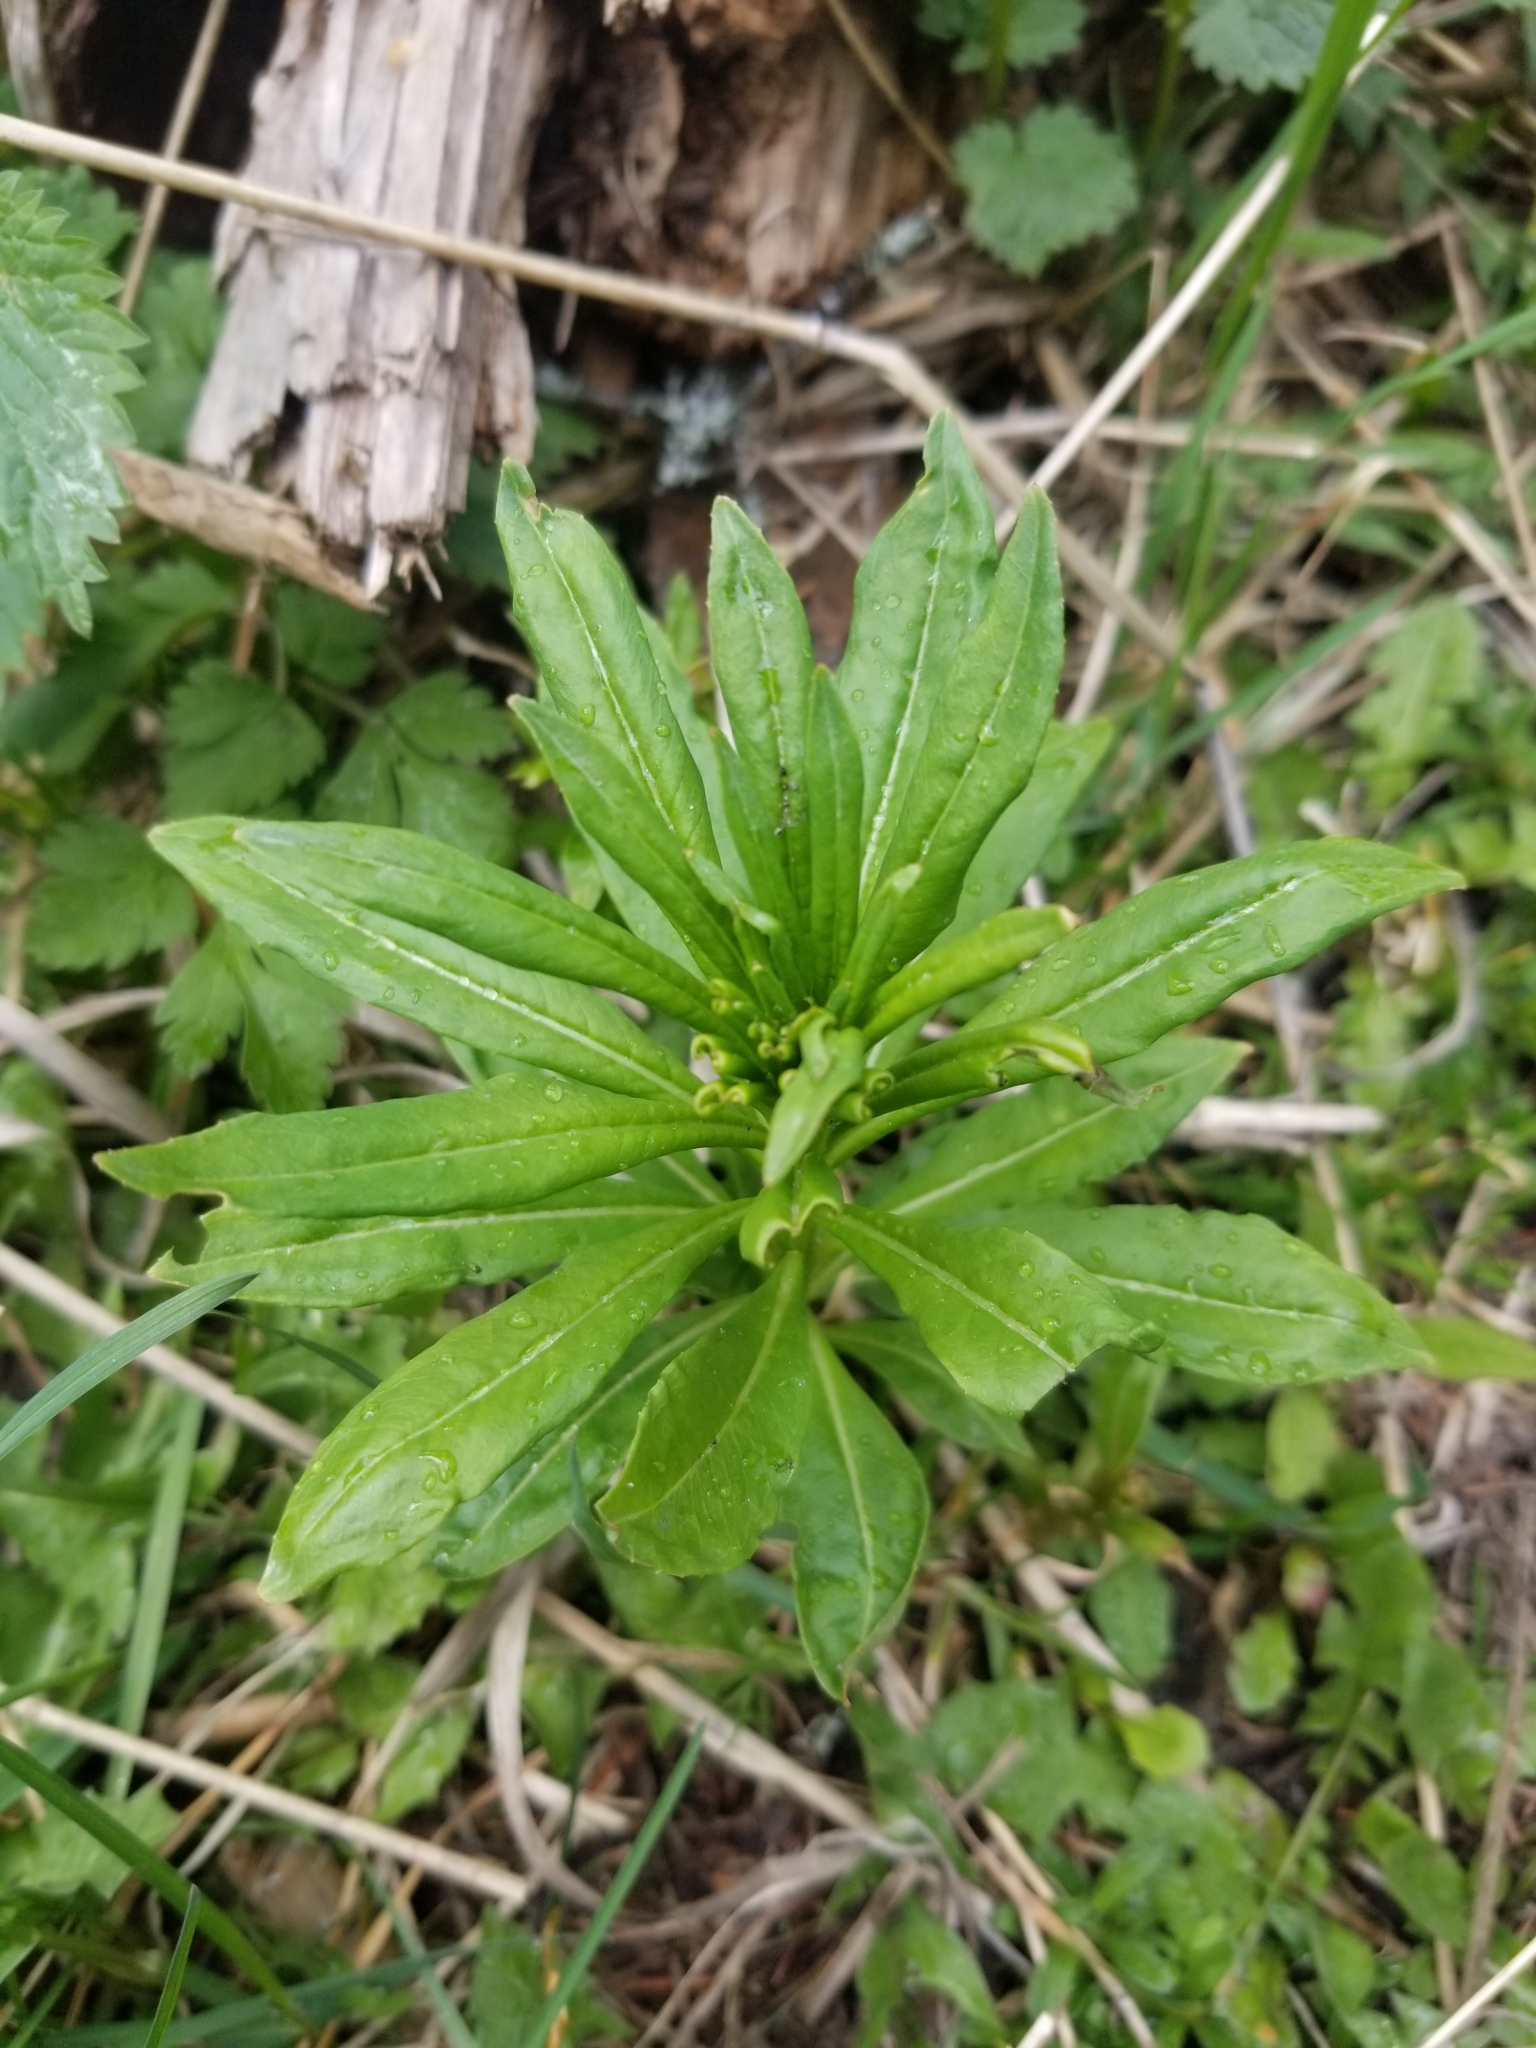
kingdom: Plantae
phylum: Tracheophyta
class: Magnoliopsida
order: Myrtales
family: Onagraceae
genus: Chamaenerion
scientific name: Chamaenerion angustifolium
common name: Fireweed
